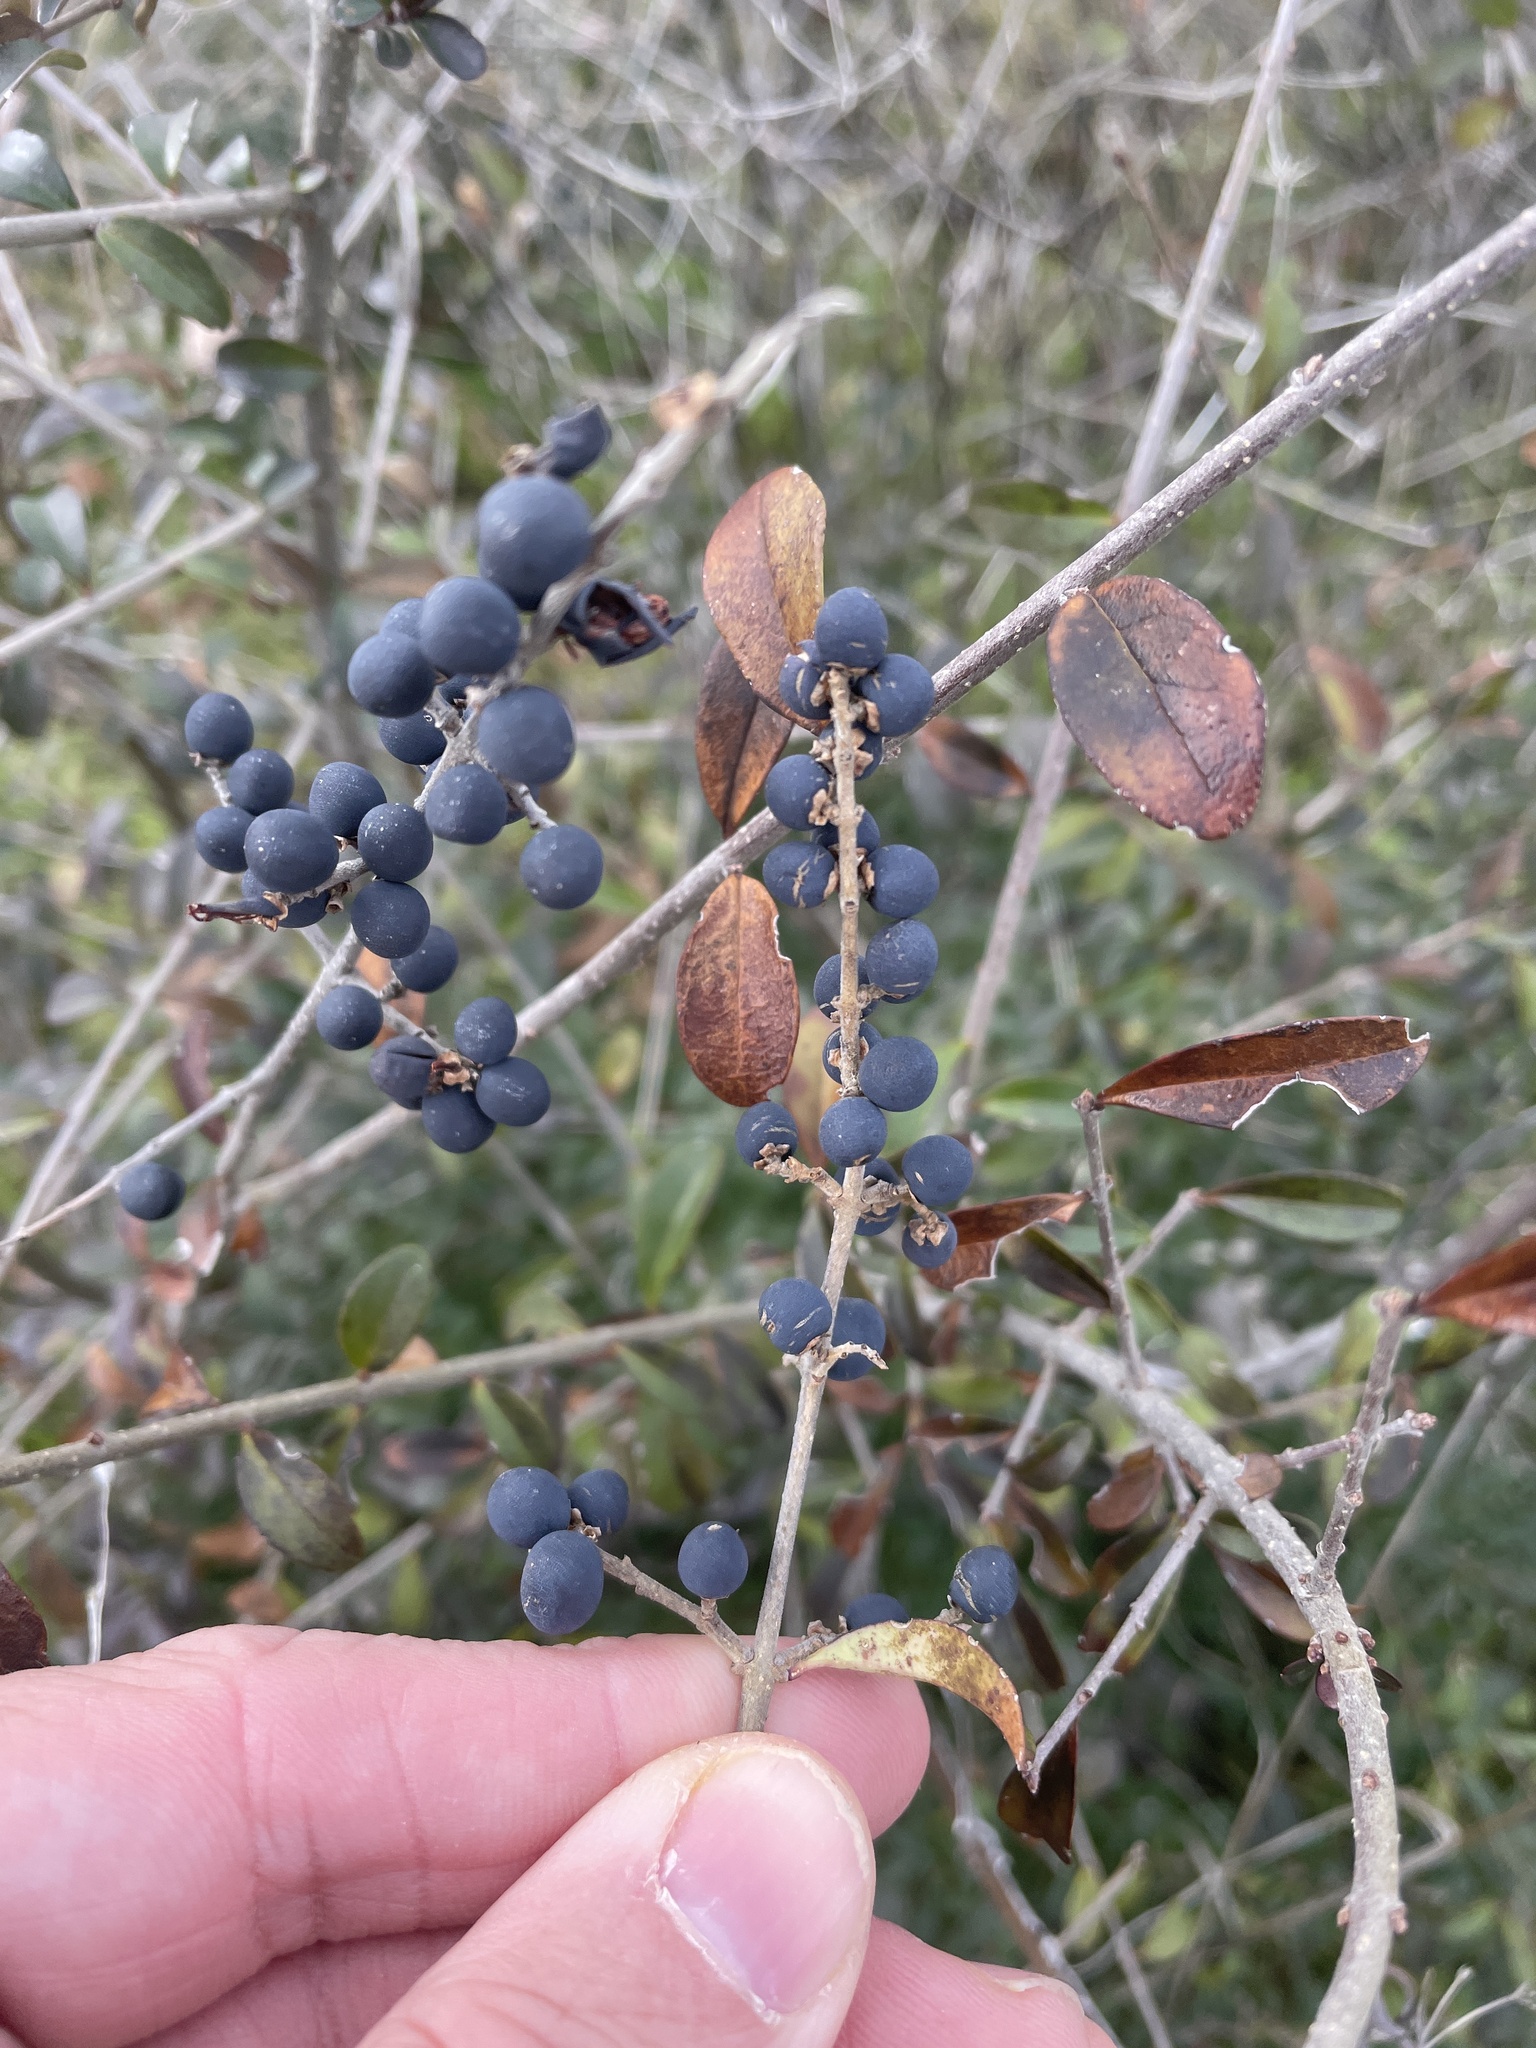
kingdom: Plantae
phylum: Tracheophyta
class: Magnoliopsida
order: Lamiales
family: Oleaceae
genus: Ligustrum
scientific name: Ligustrum quihoui
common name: Waxyleaf privet
